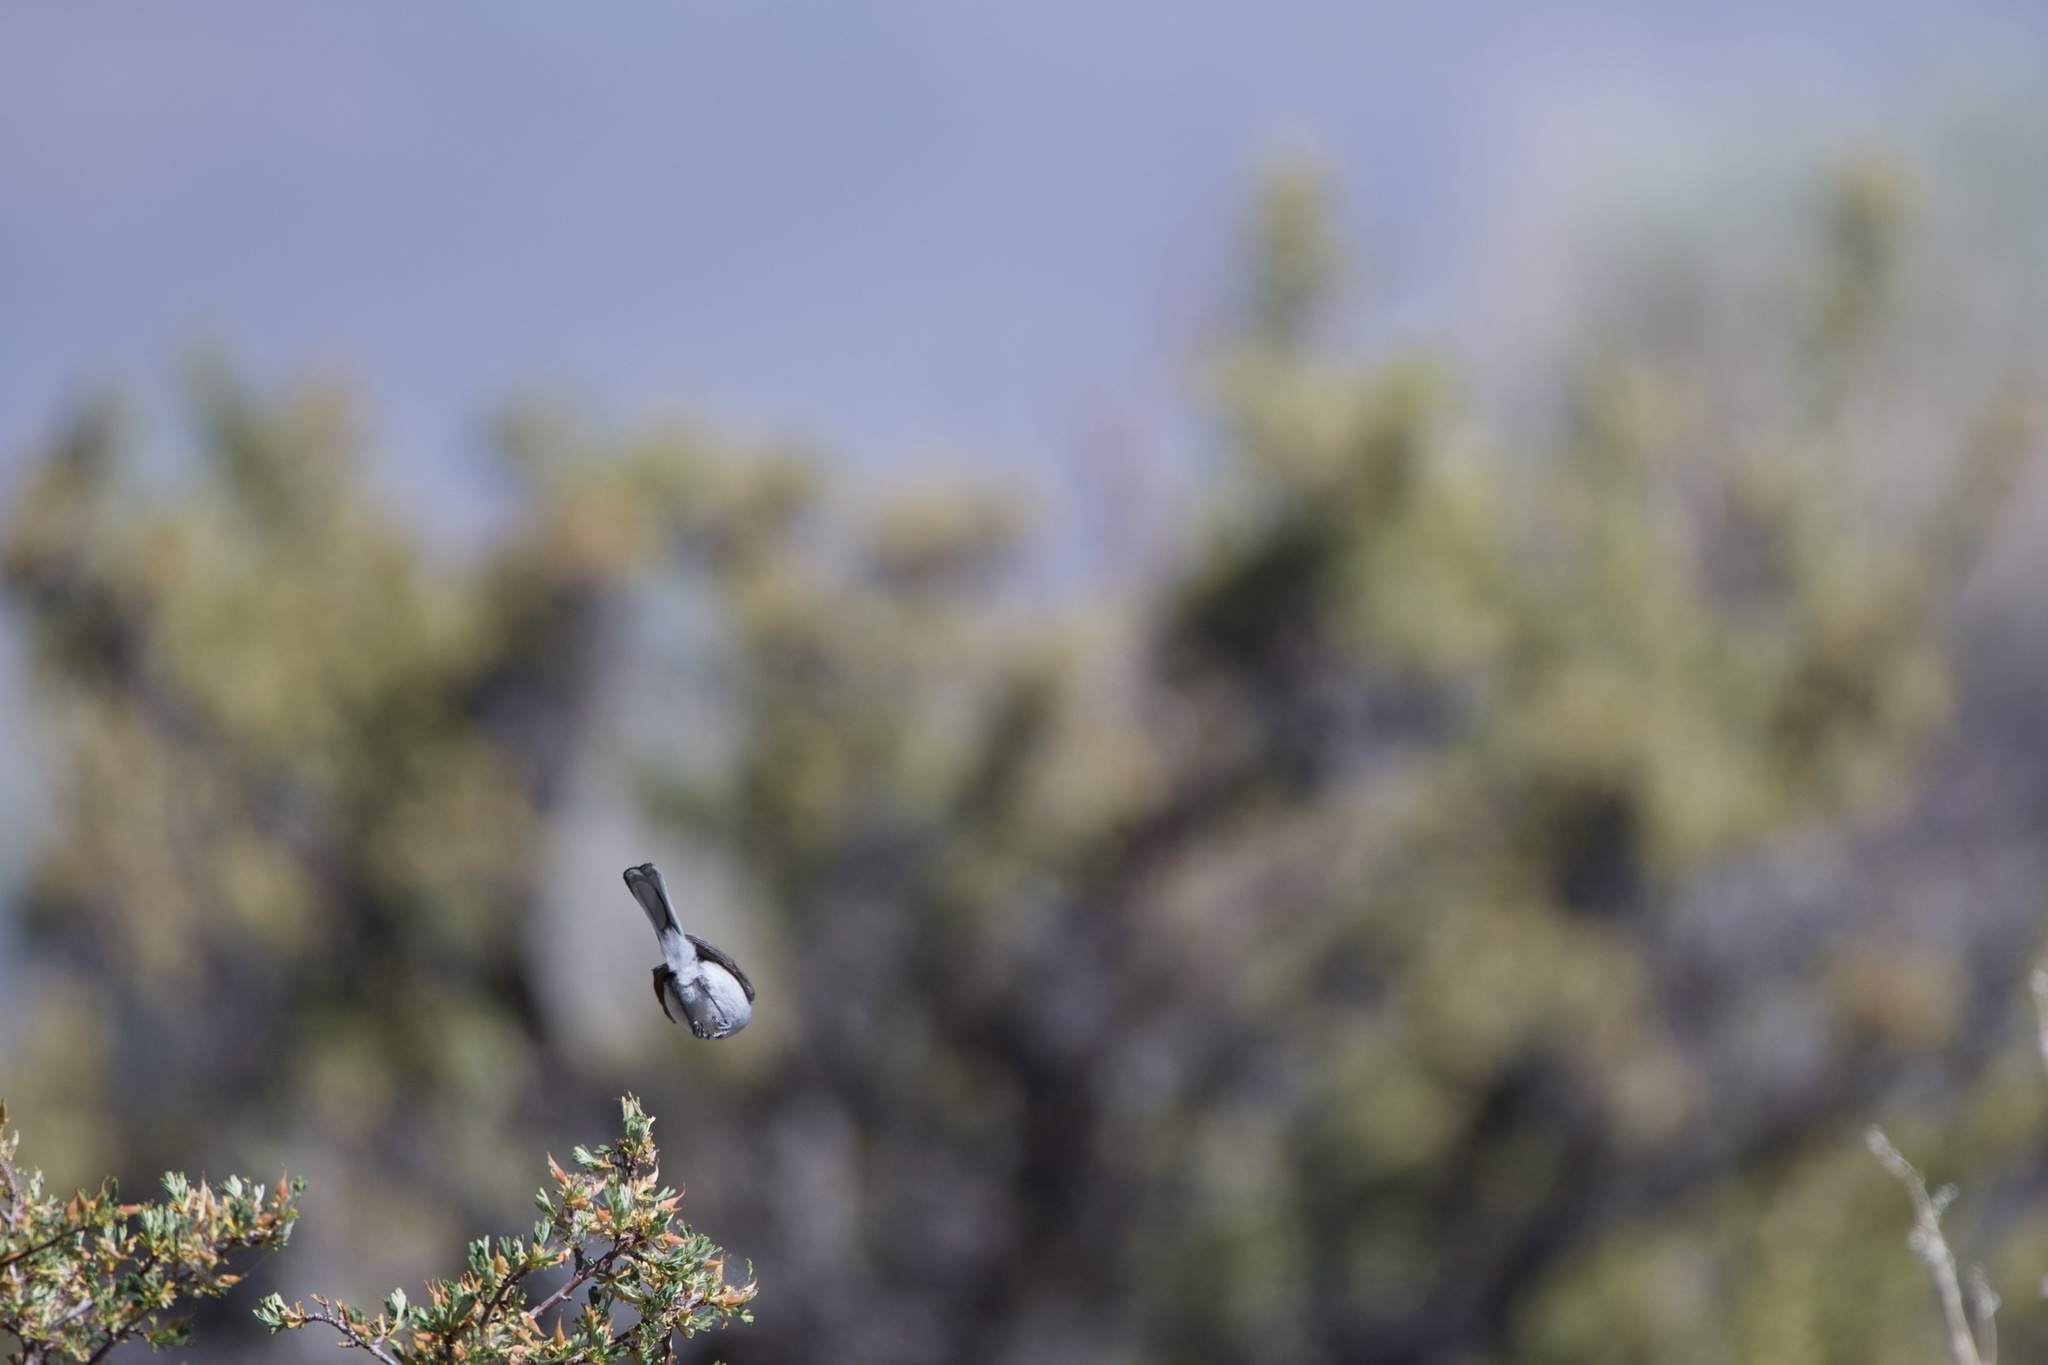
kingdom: Animalia
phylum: Chordata
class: Aves
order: Passeriformes
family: Polioptilidae
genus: Polioptila
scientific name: Polioptila caerulea
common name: Blue-gray gnatcatcher
